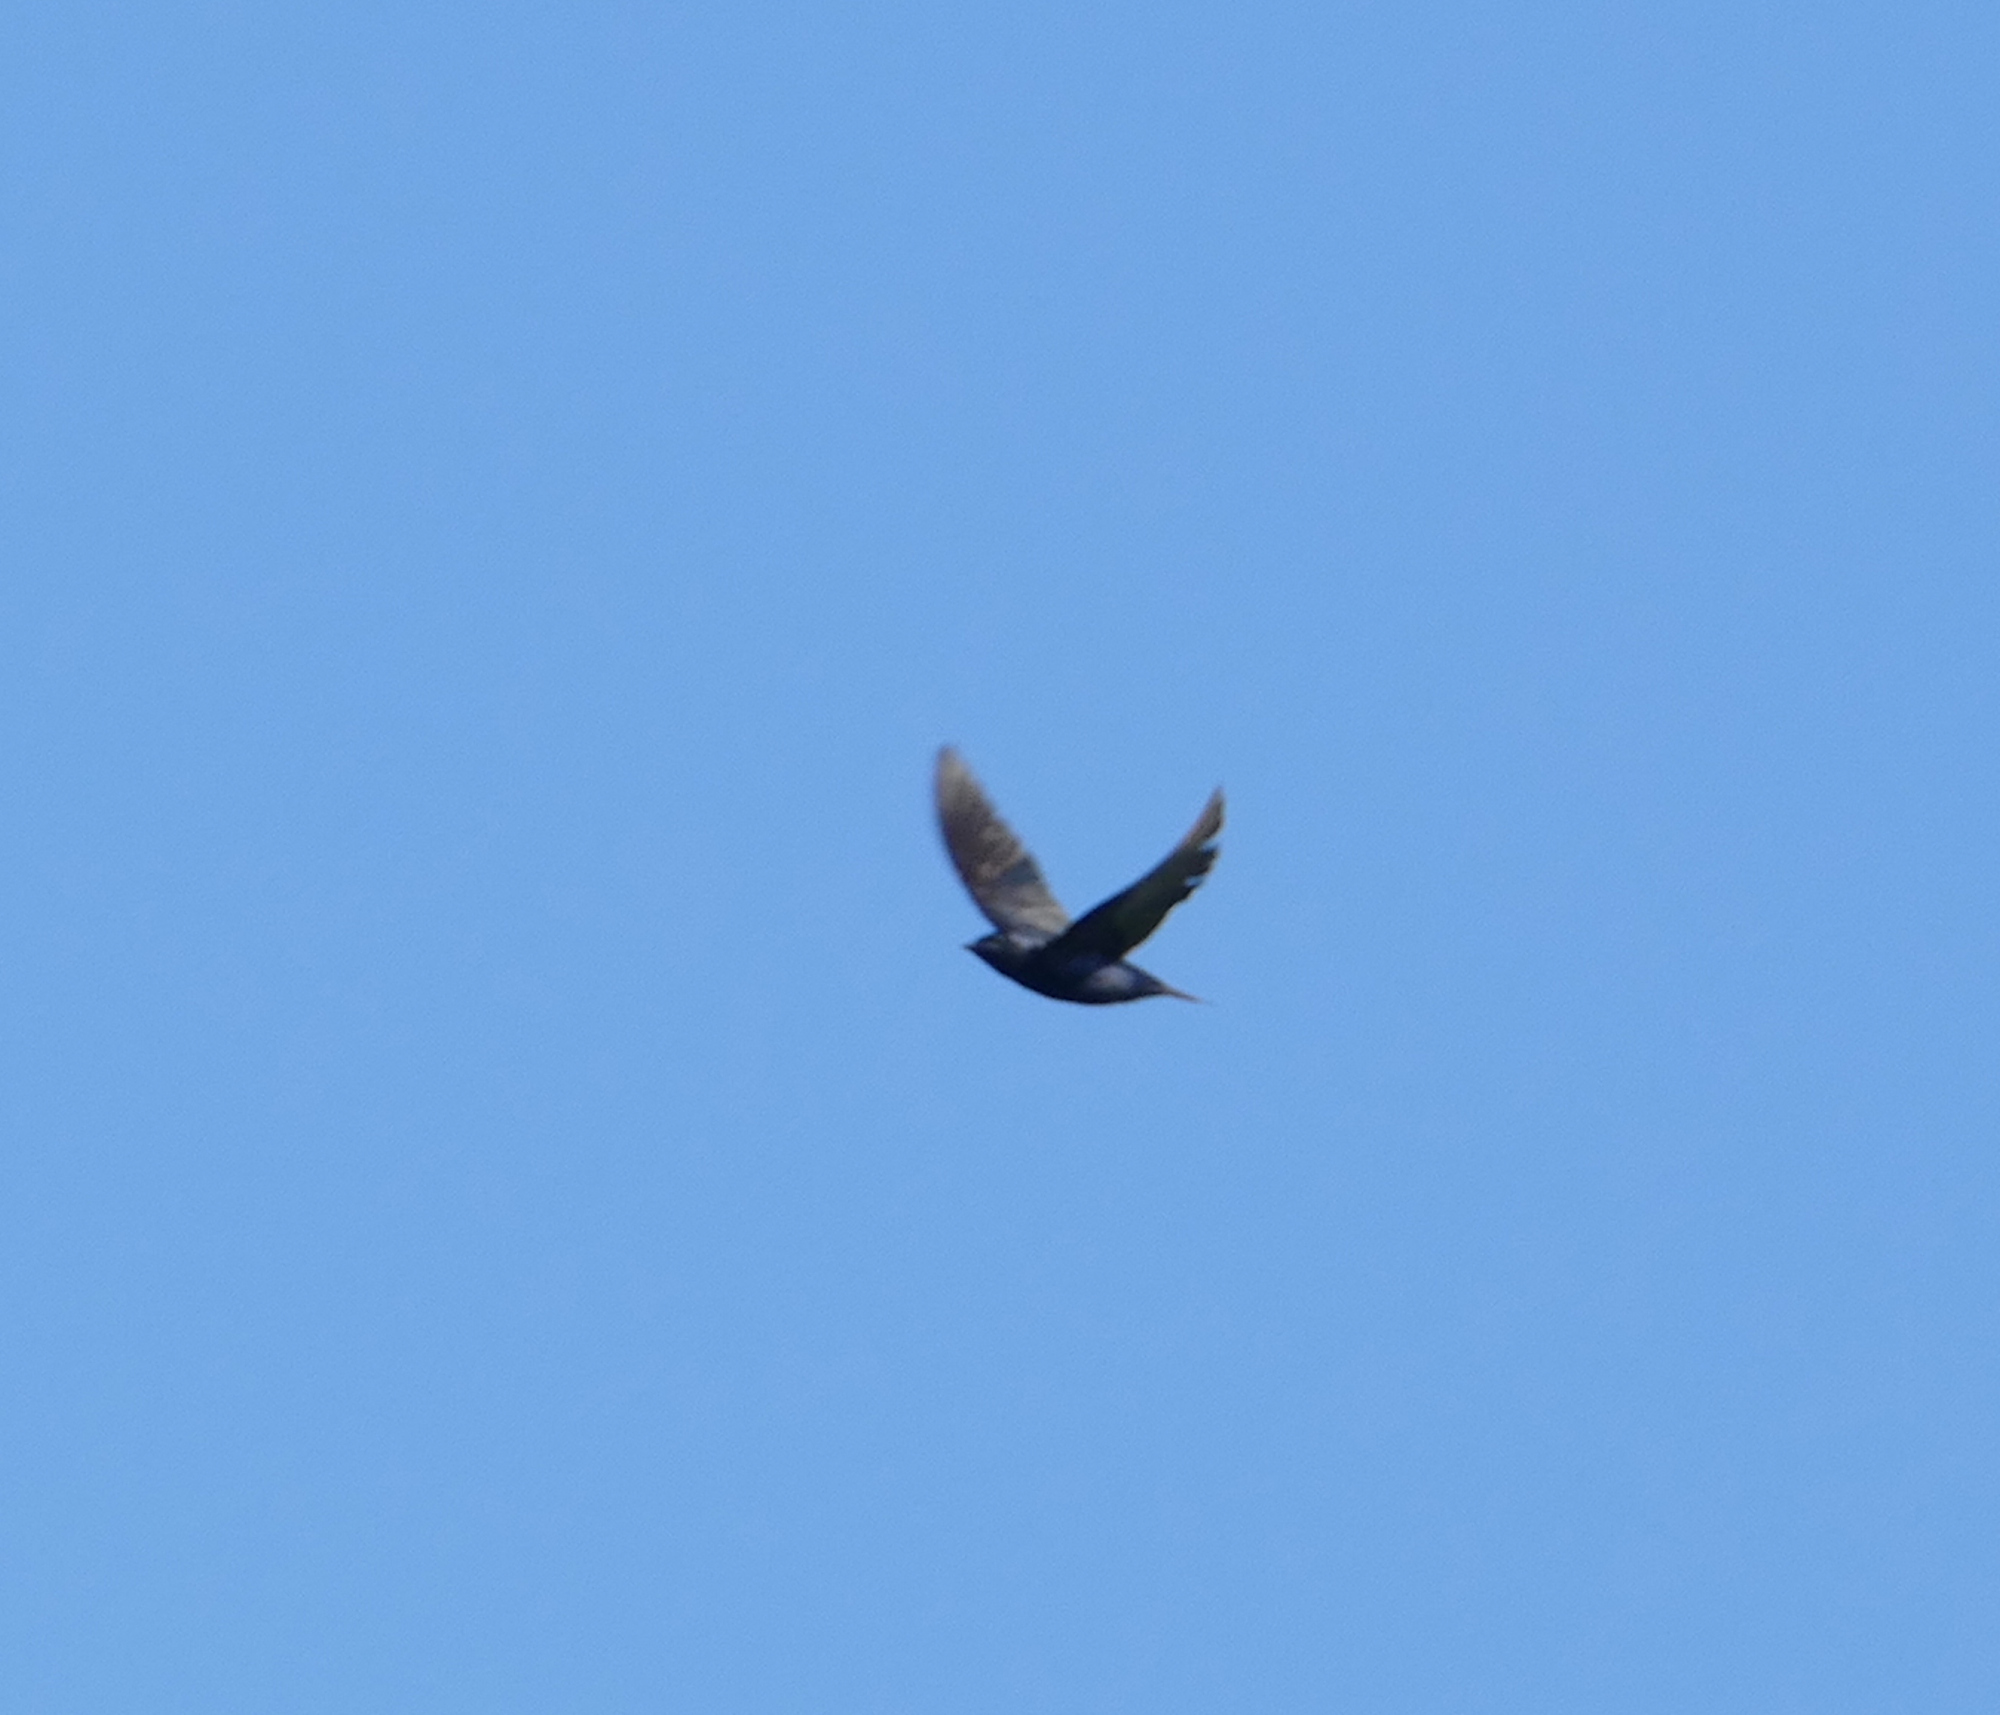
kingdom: Animalia
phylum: Chordata
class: Aves
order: Passeriformes
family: Hirundinidae
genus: Progne
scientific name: Progne subis
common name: Purple martin
